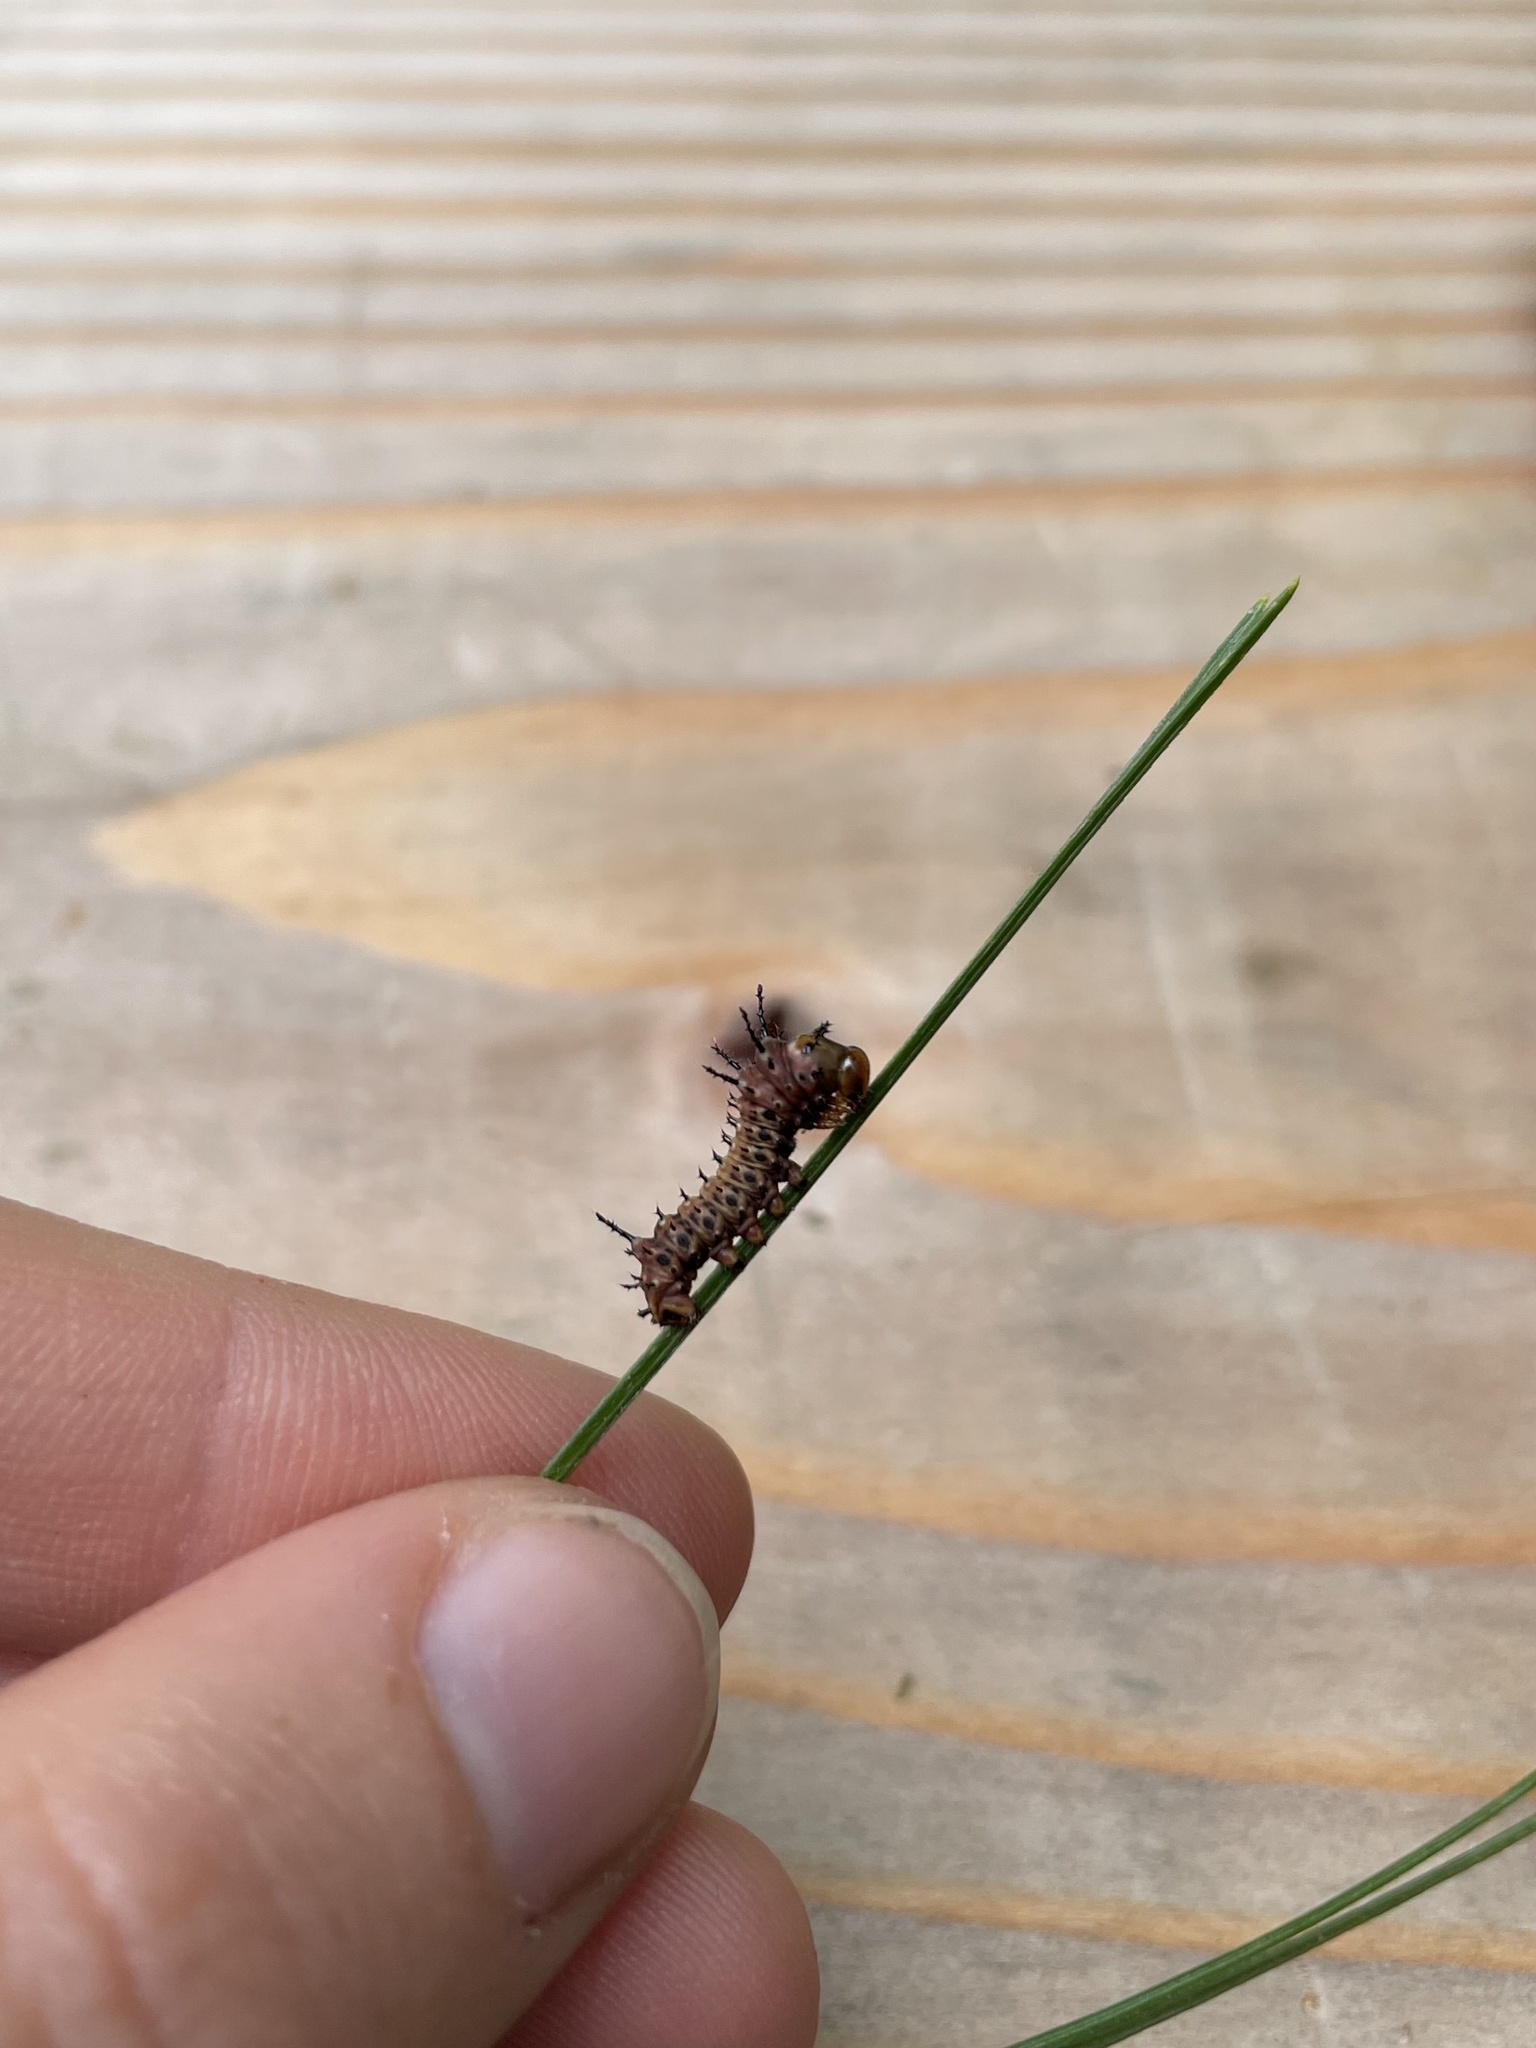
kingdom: Animalia
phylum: Arthropoda
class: Insecta
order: Lepidoptera
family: Saturniidae
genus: Eacles
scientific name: Eacles
